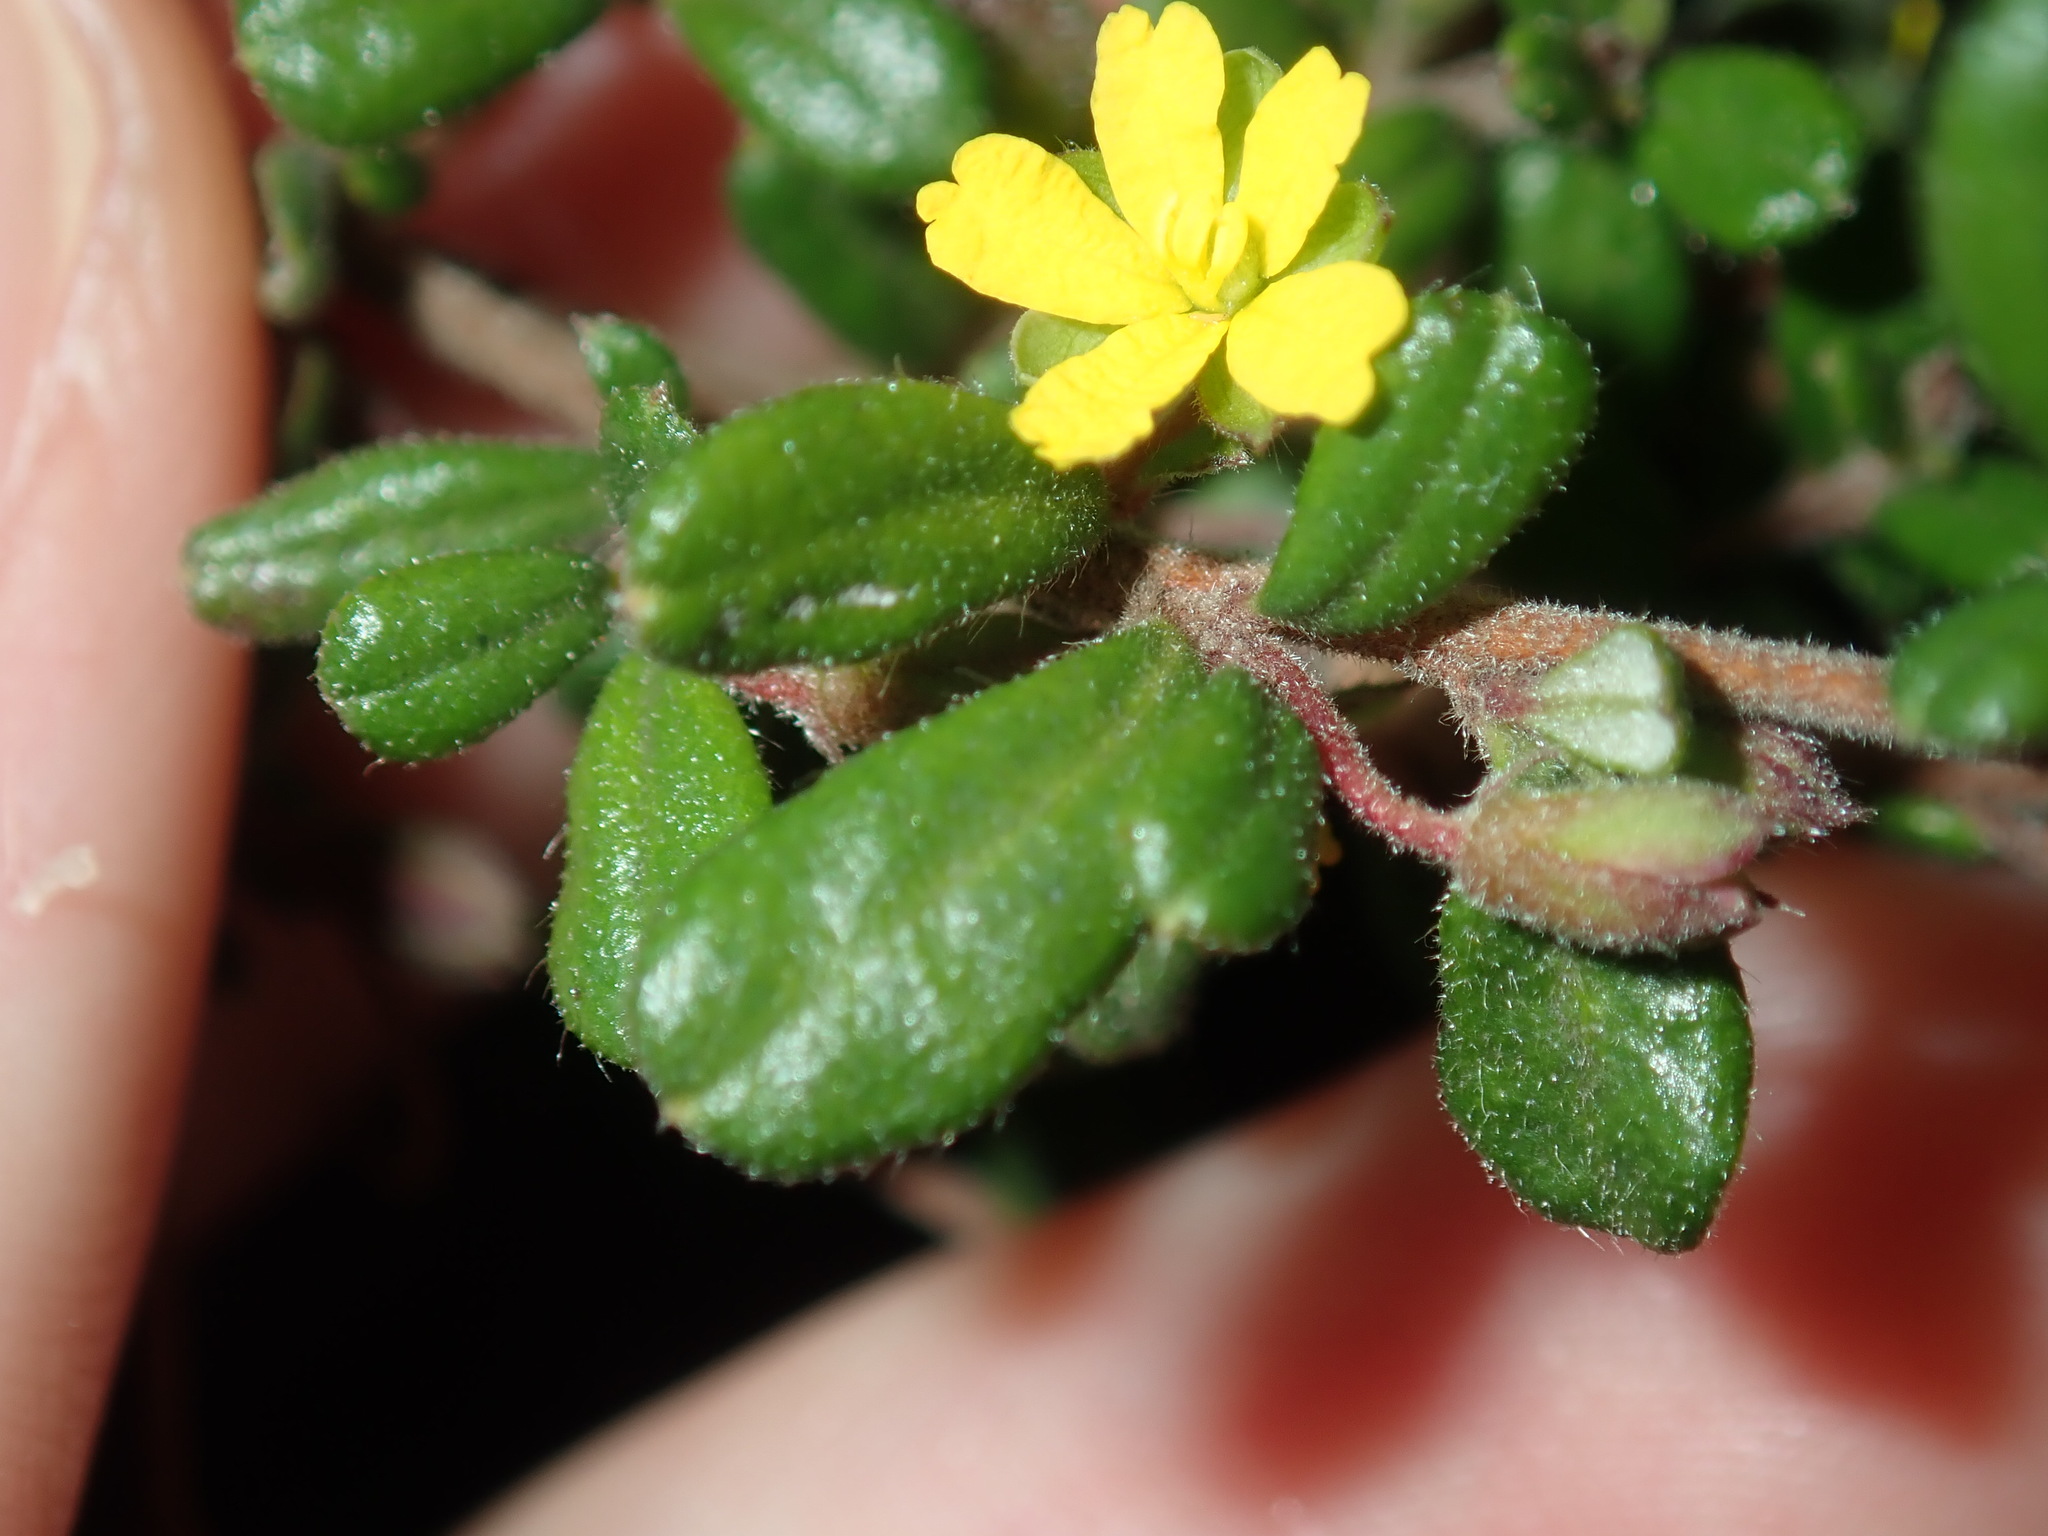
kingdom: Plantae
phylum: Tracheophyta
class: Magnoliopsida
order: Dilleniales
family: Dilleniaceae
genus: Hibbertia
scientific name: Hibbertia aspera
